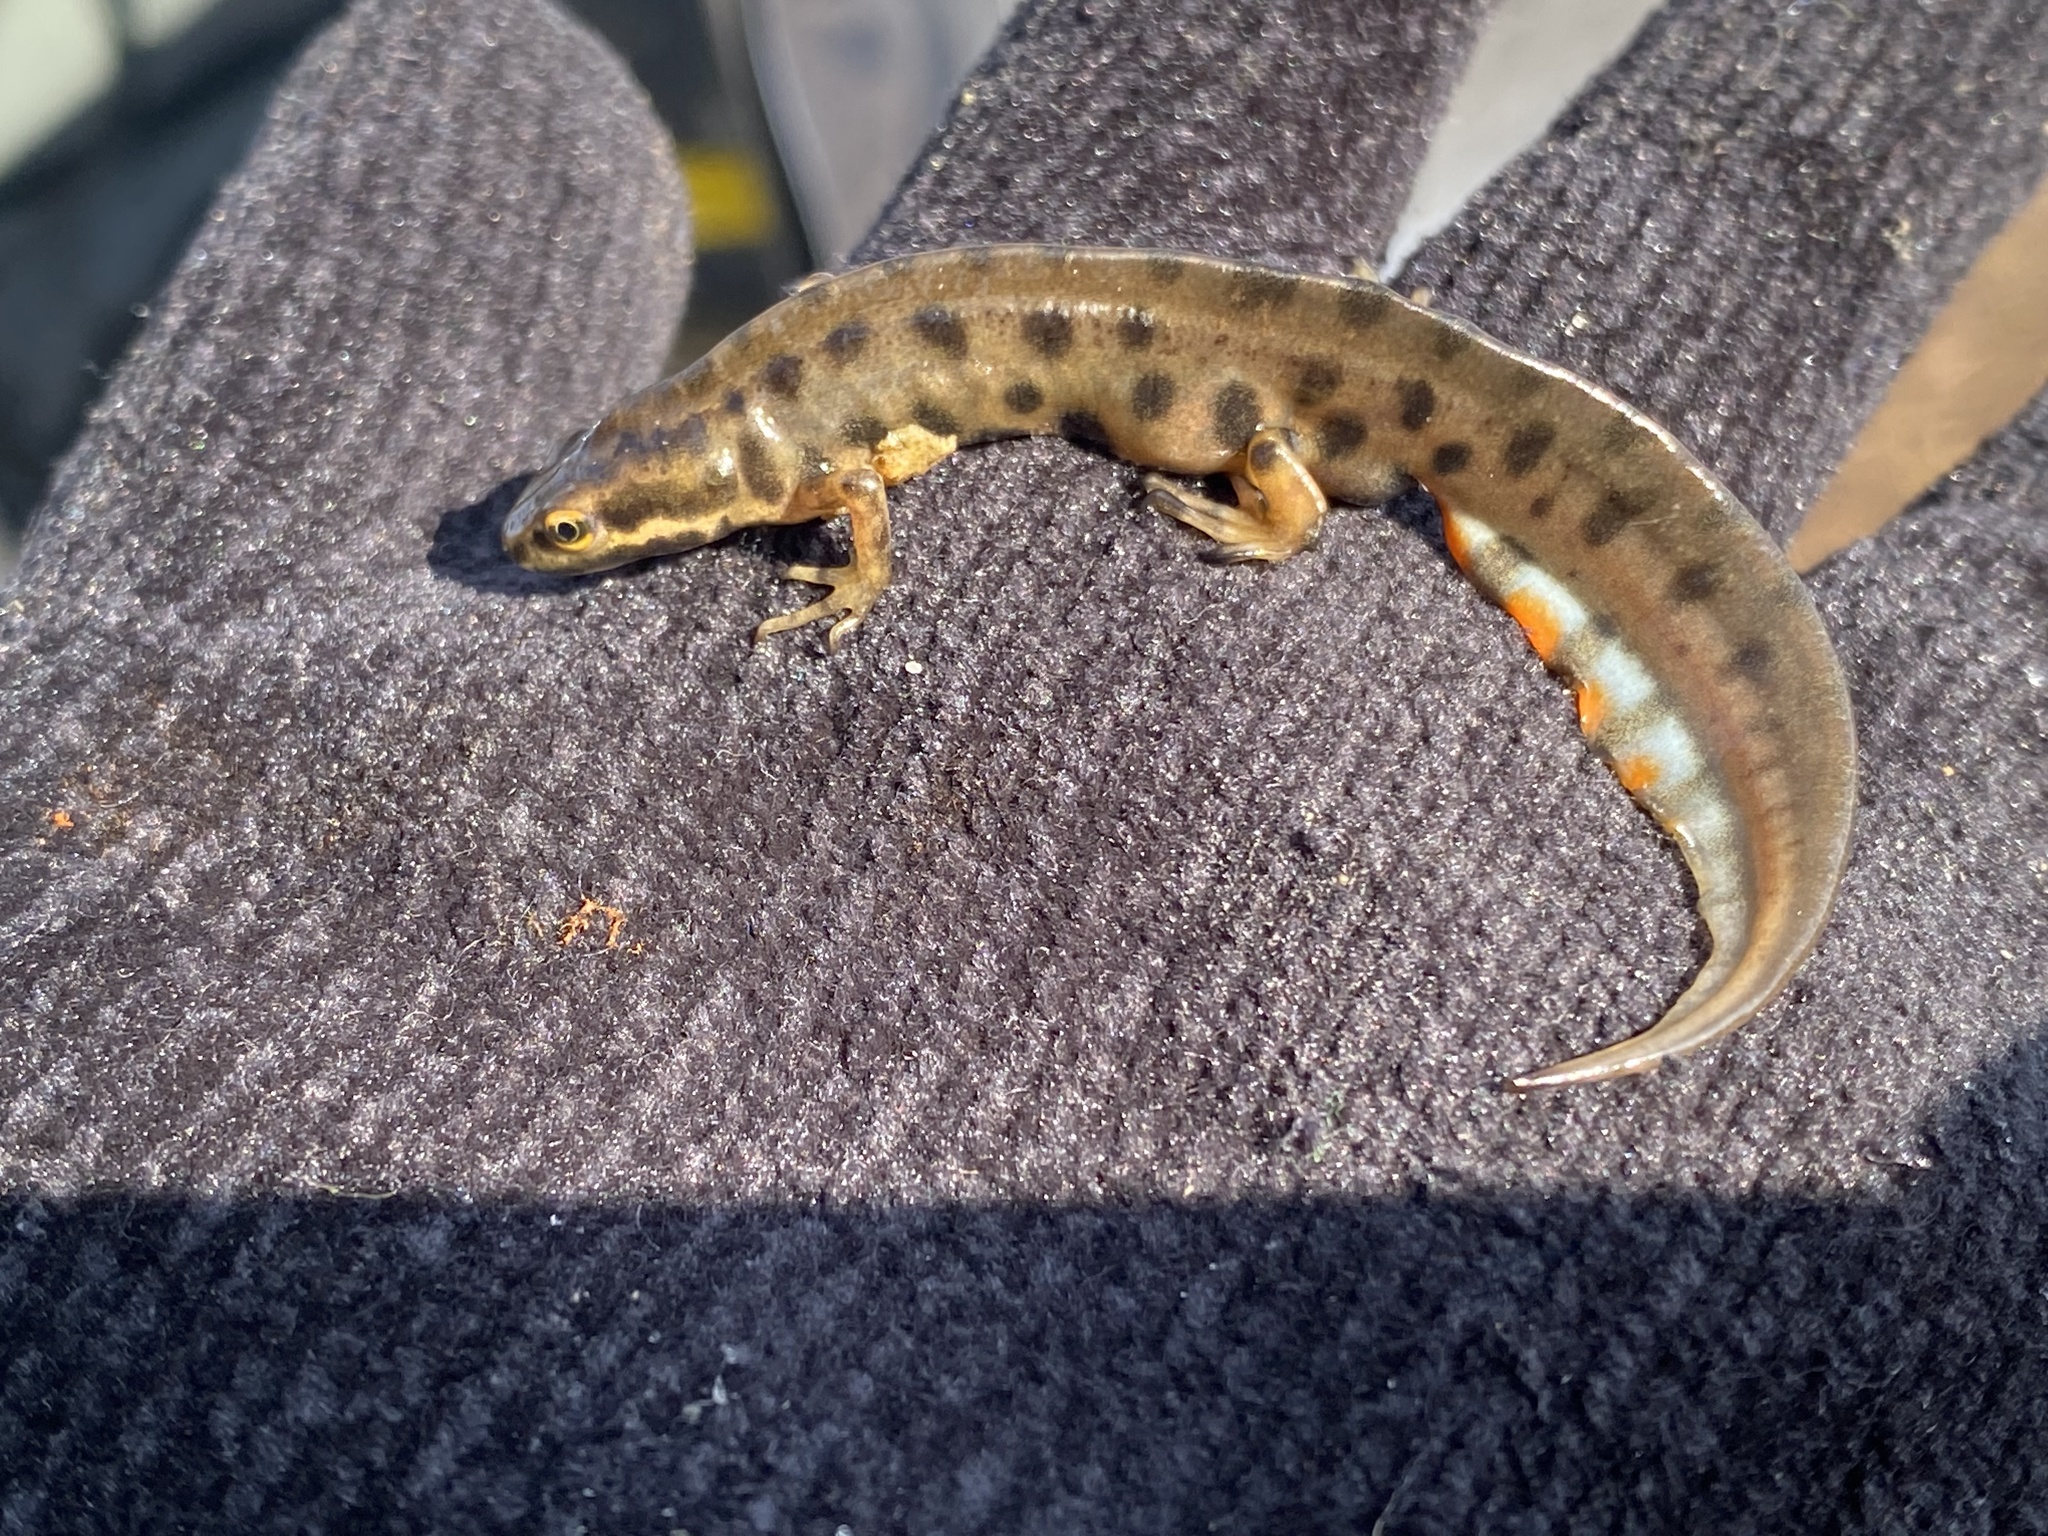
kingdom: Animalia
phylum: Chordata
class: Amphibia
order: Caudata
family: Salamandridae
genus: Lissotriton
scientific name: Lissotriton vulgaris
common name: Smooth newt
